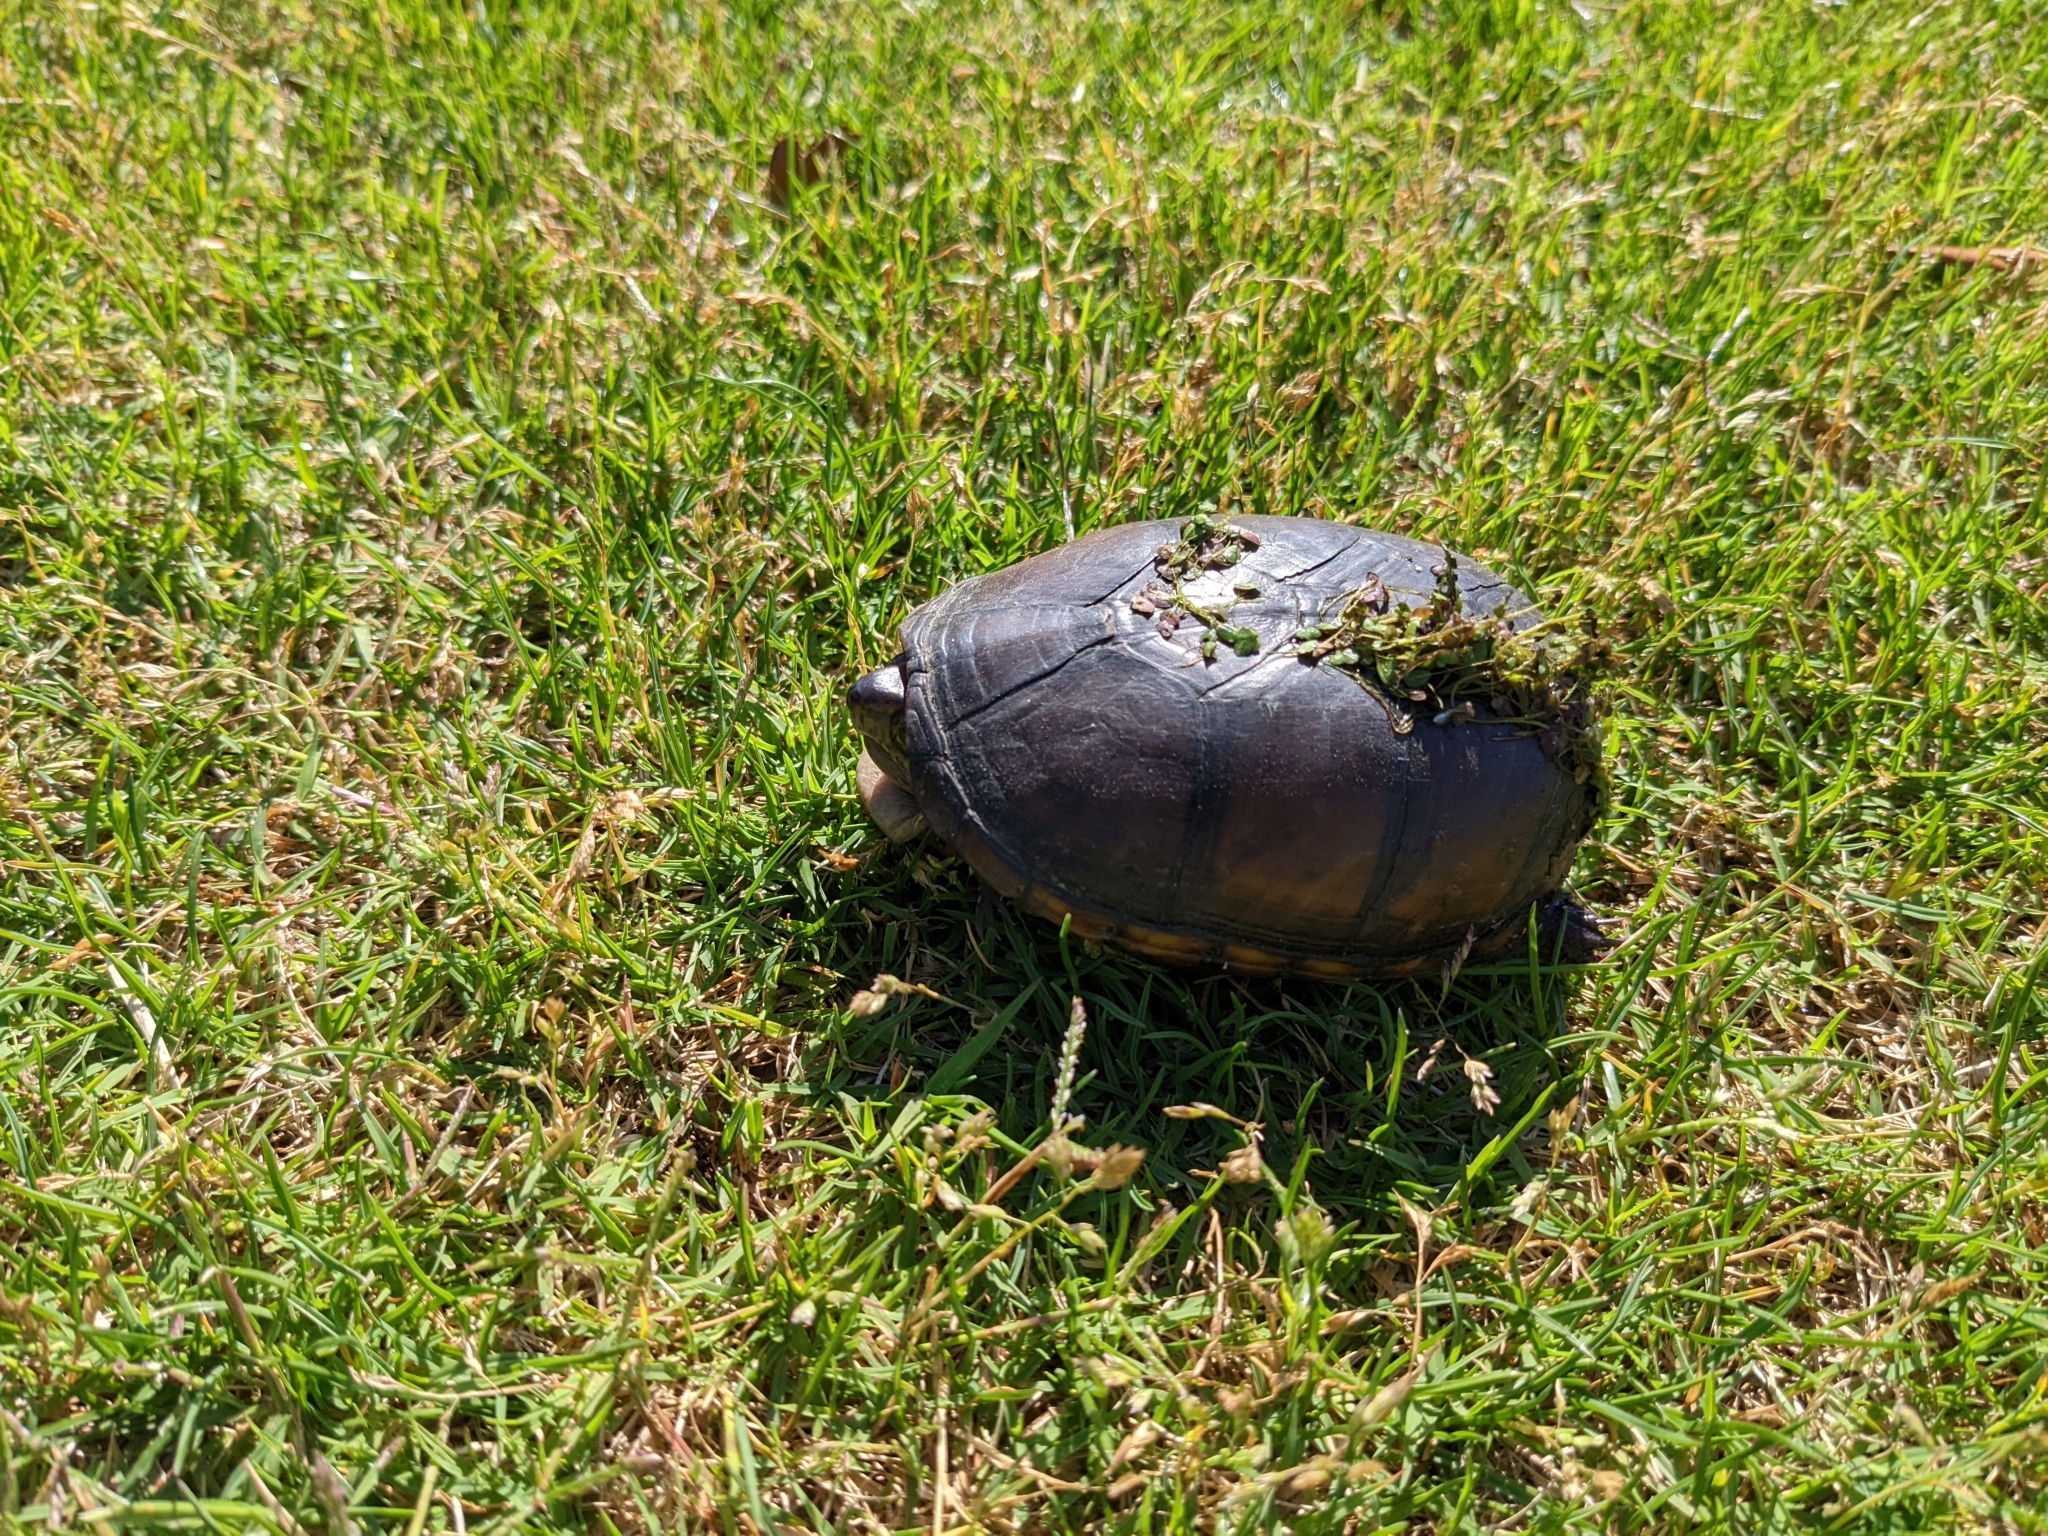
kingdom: Animalia
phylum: Chordata
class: Testudines
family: Kinosternidae
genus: Kinosternon
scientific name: Kinosternon subrubrum
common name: Eastern mud turtle
